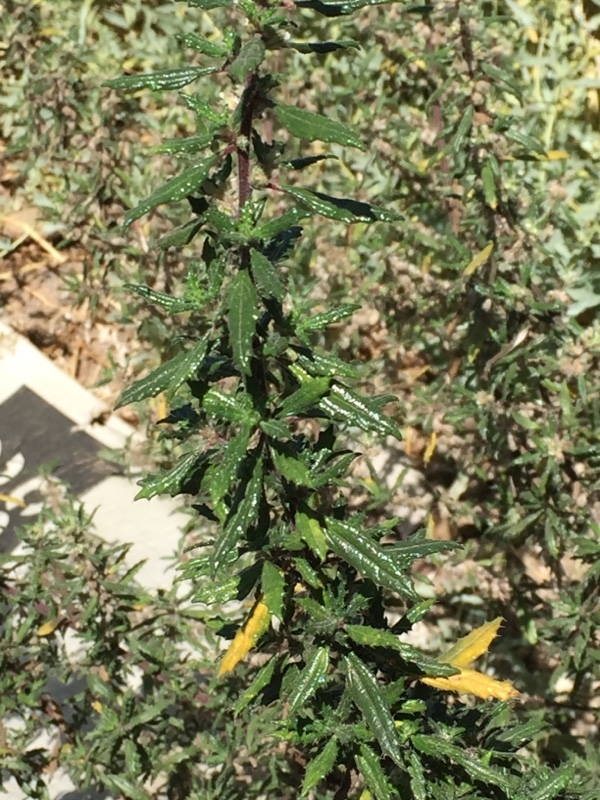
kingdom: Plantae
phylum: Tracheophyta
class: Magnoliopsida
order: Rosales
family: Urticaceae
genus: Forsskaolea
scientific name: Forsskaolea angustifolia
